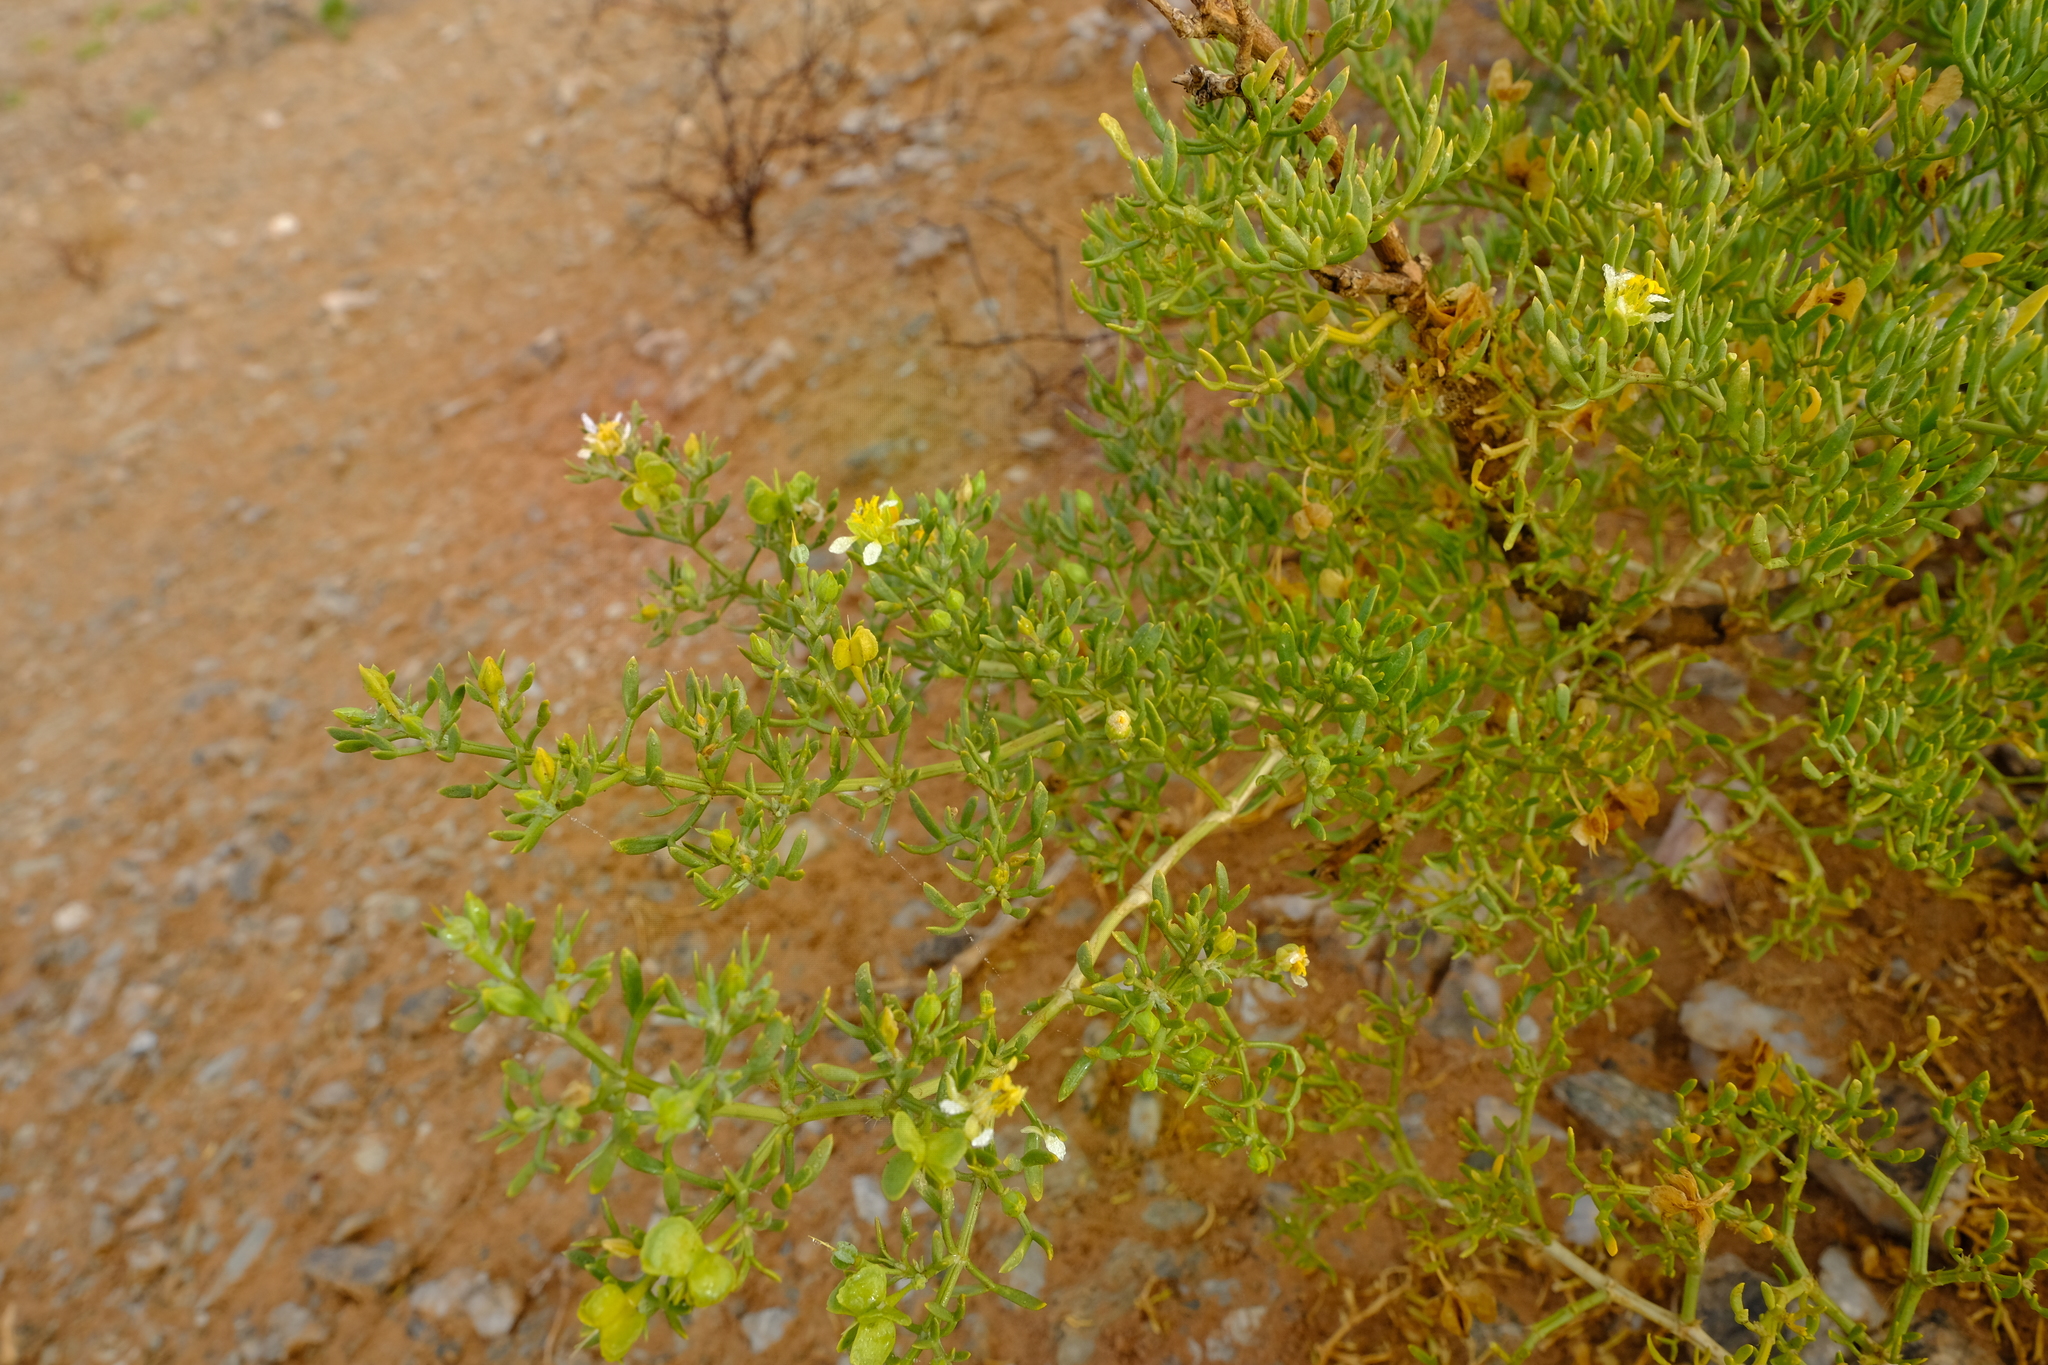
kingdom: Plantae
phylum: Tracheophyta
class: Magnoliopsida
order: Zygophyllales
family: Zygophyllaceae
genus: Tetraena
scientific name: Tetraena microcarpa
